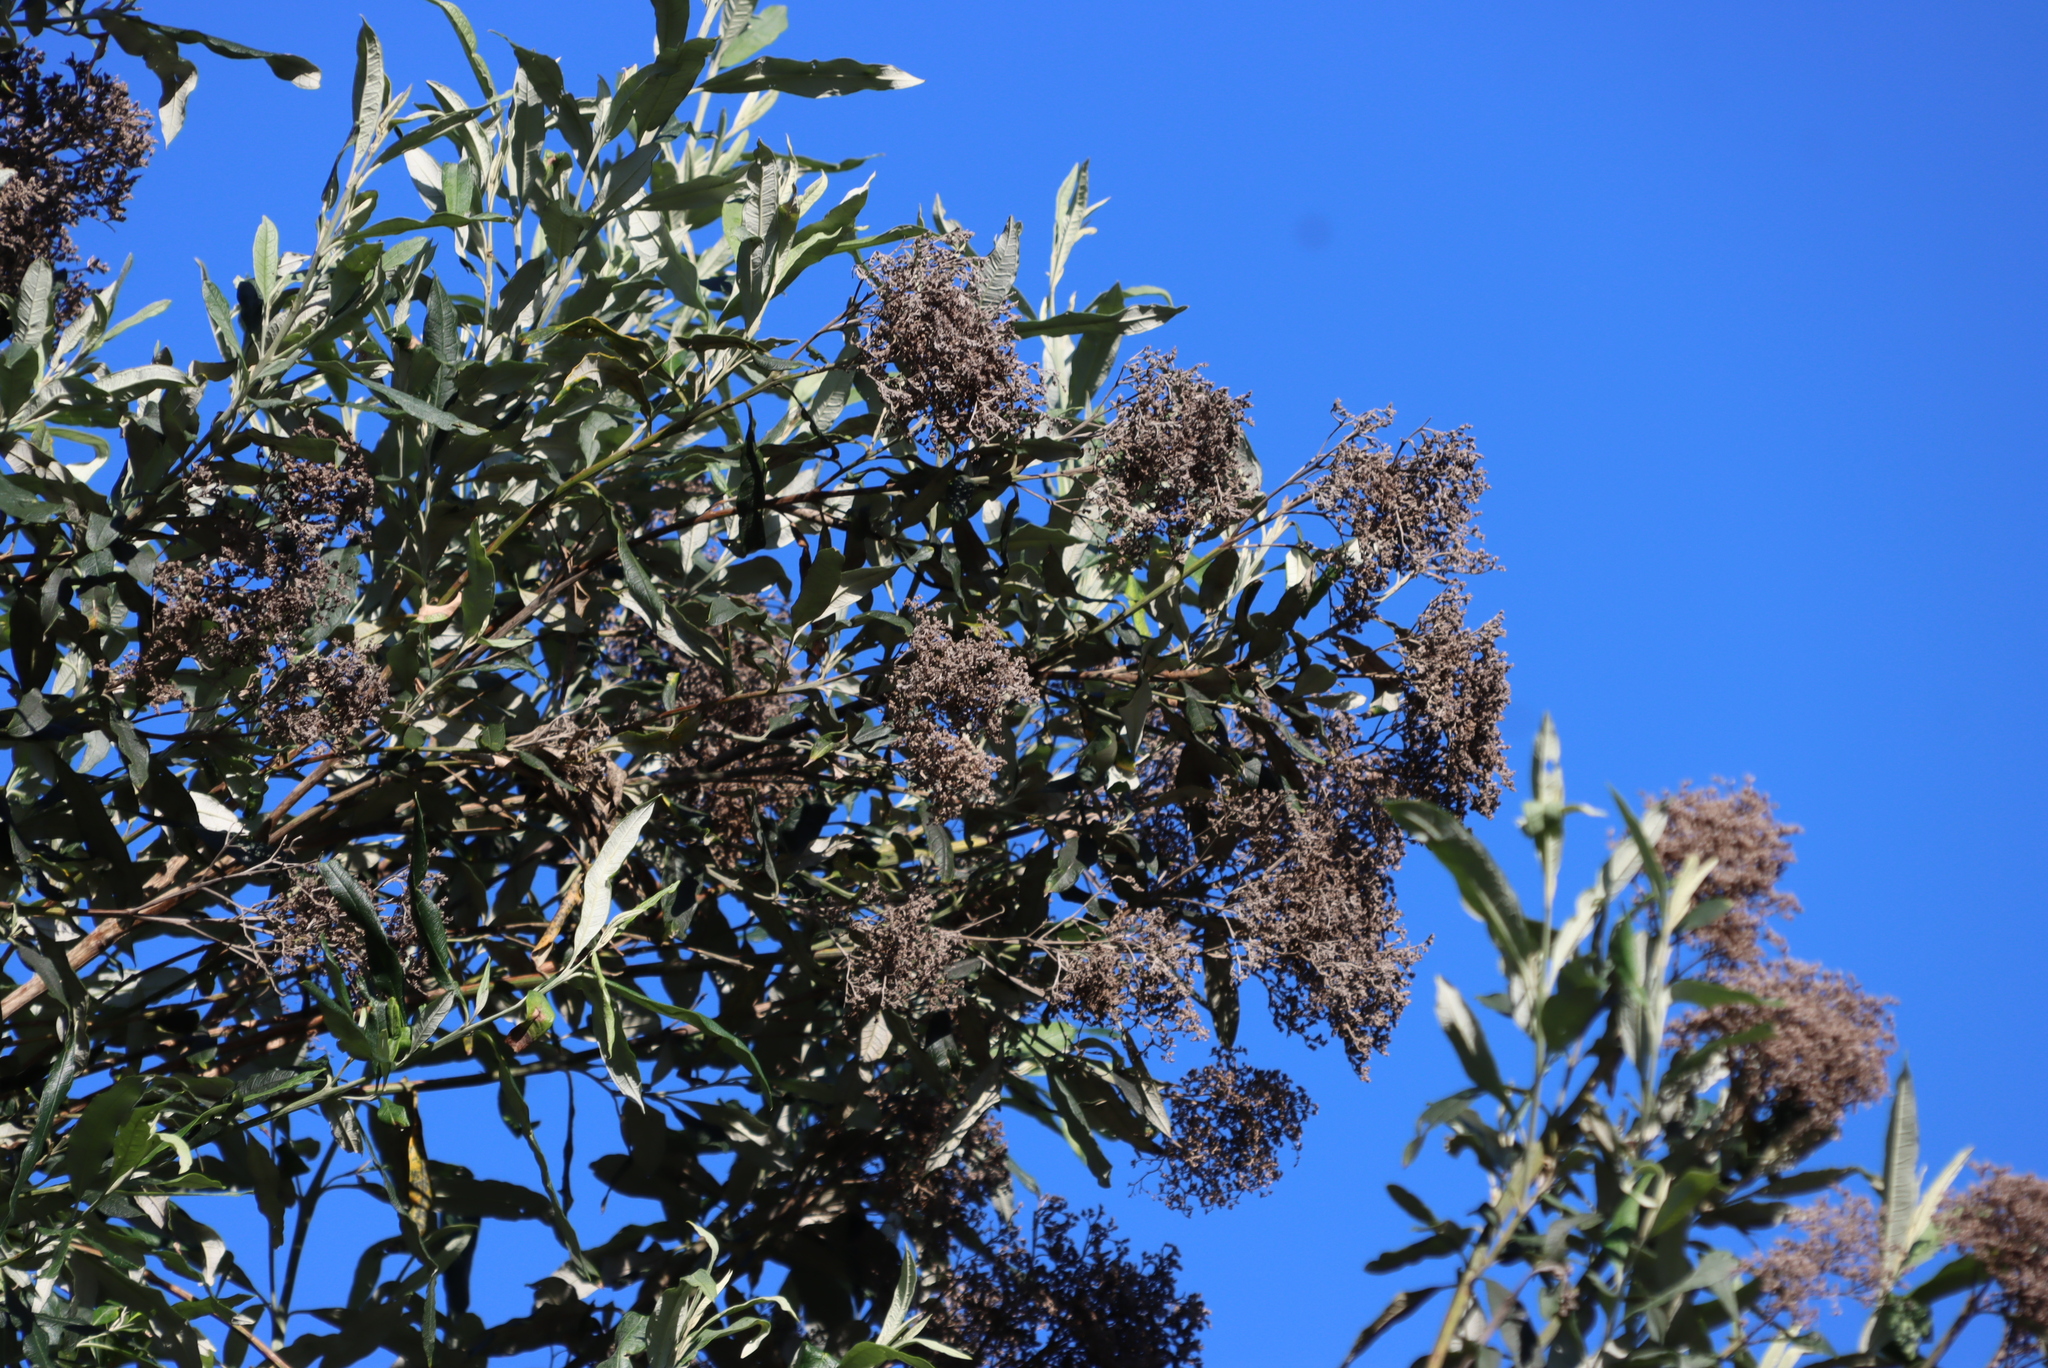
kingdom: Plantae
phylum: Tracheophyta
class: Magnoliopsida
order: Lamiales
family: Scrophulariaceae
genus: Buddleja
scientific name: Buddleja saligna
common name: False olive
